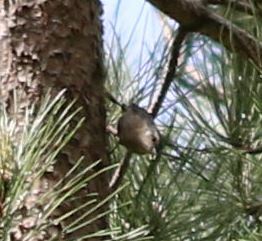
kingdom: Animalia
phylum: Chordata
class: Aves
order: Passeriformes
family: Sittidae
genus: Sitta
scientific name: Sitta whiteheadi
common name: Corsican nuthatch
